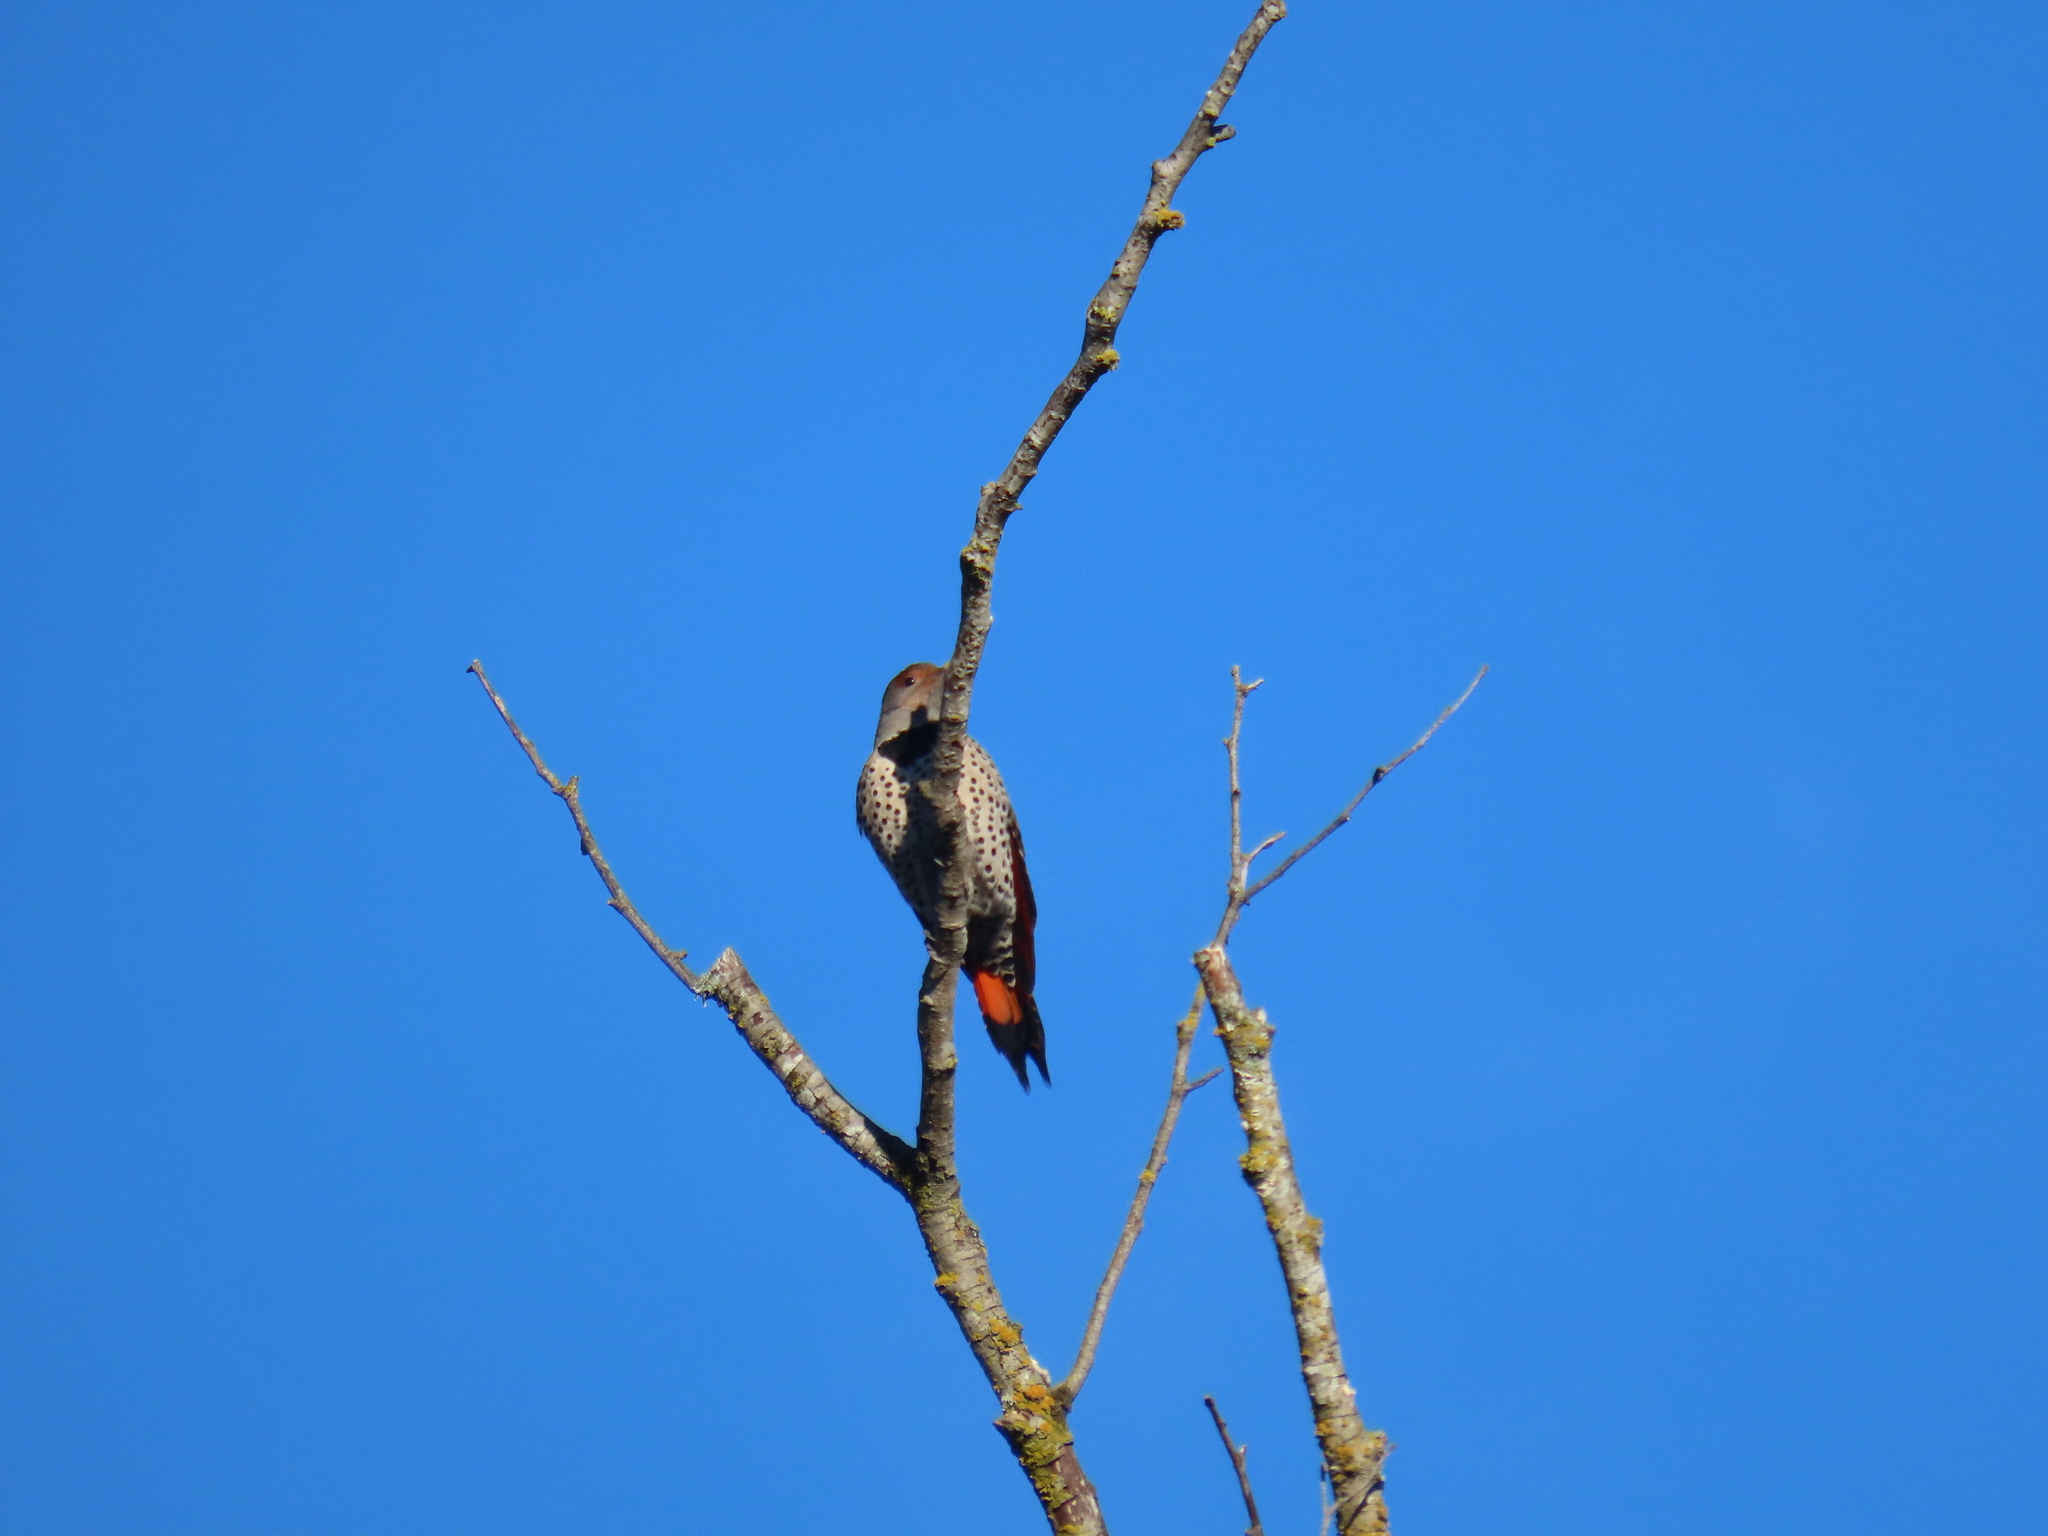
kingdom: Animalia
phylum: Chordata
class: Aves
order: Piciformes
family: Picidae
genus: Colaptes
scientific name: Colaptes auratus
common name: Northern flicker
